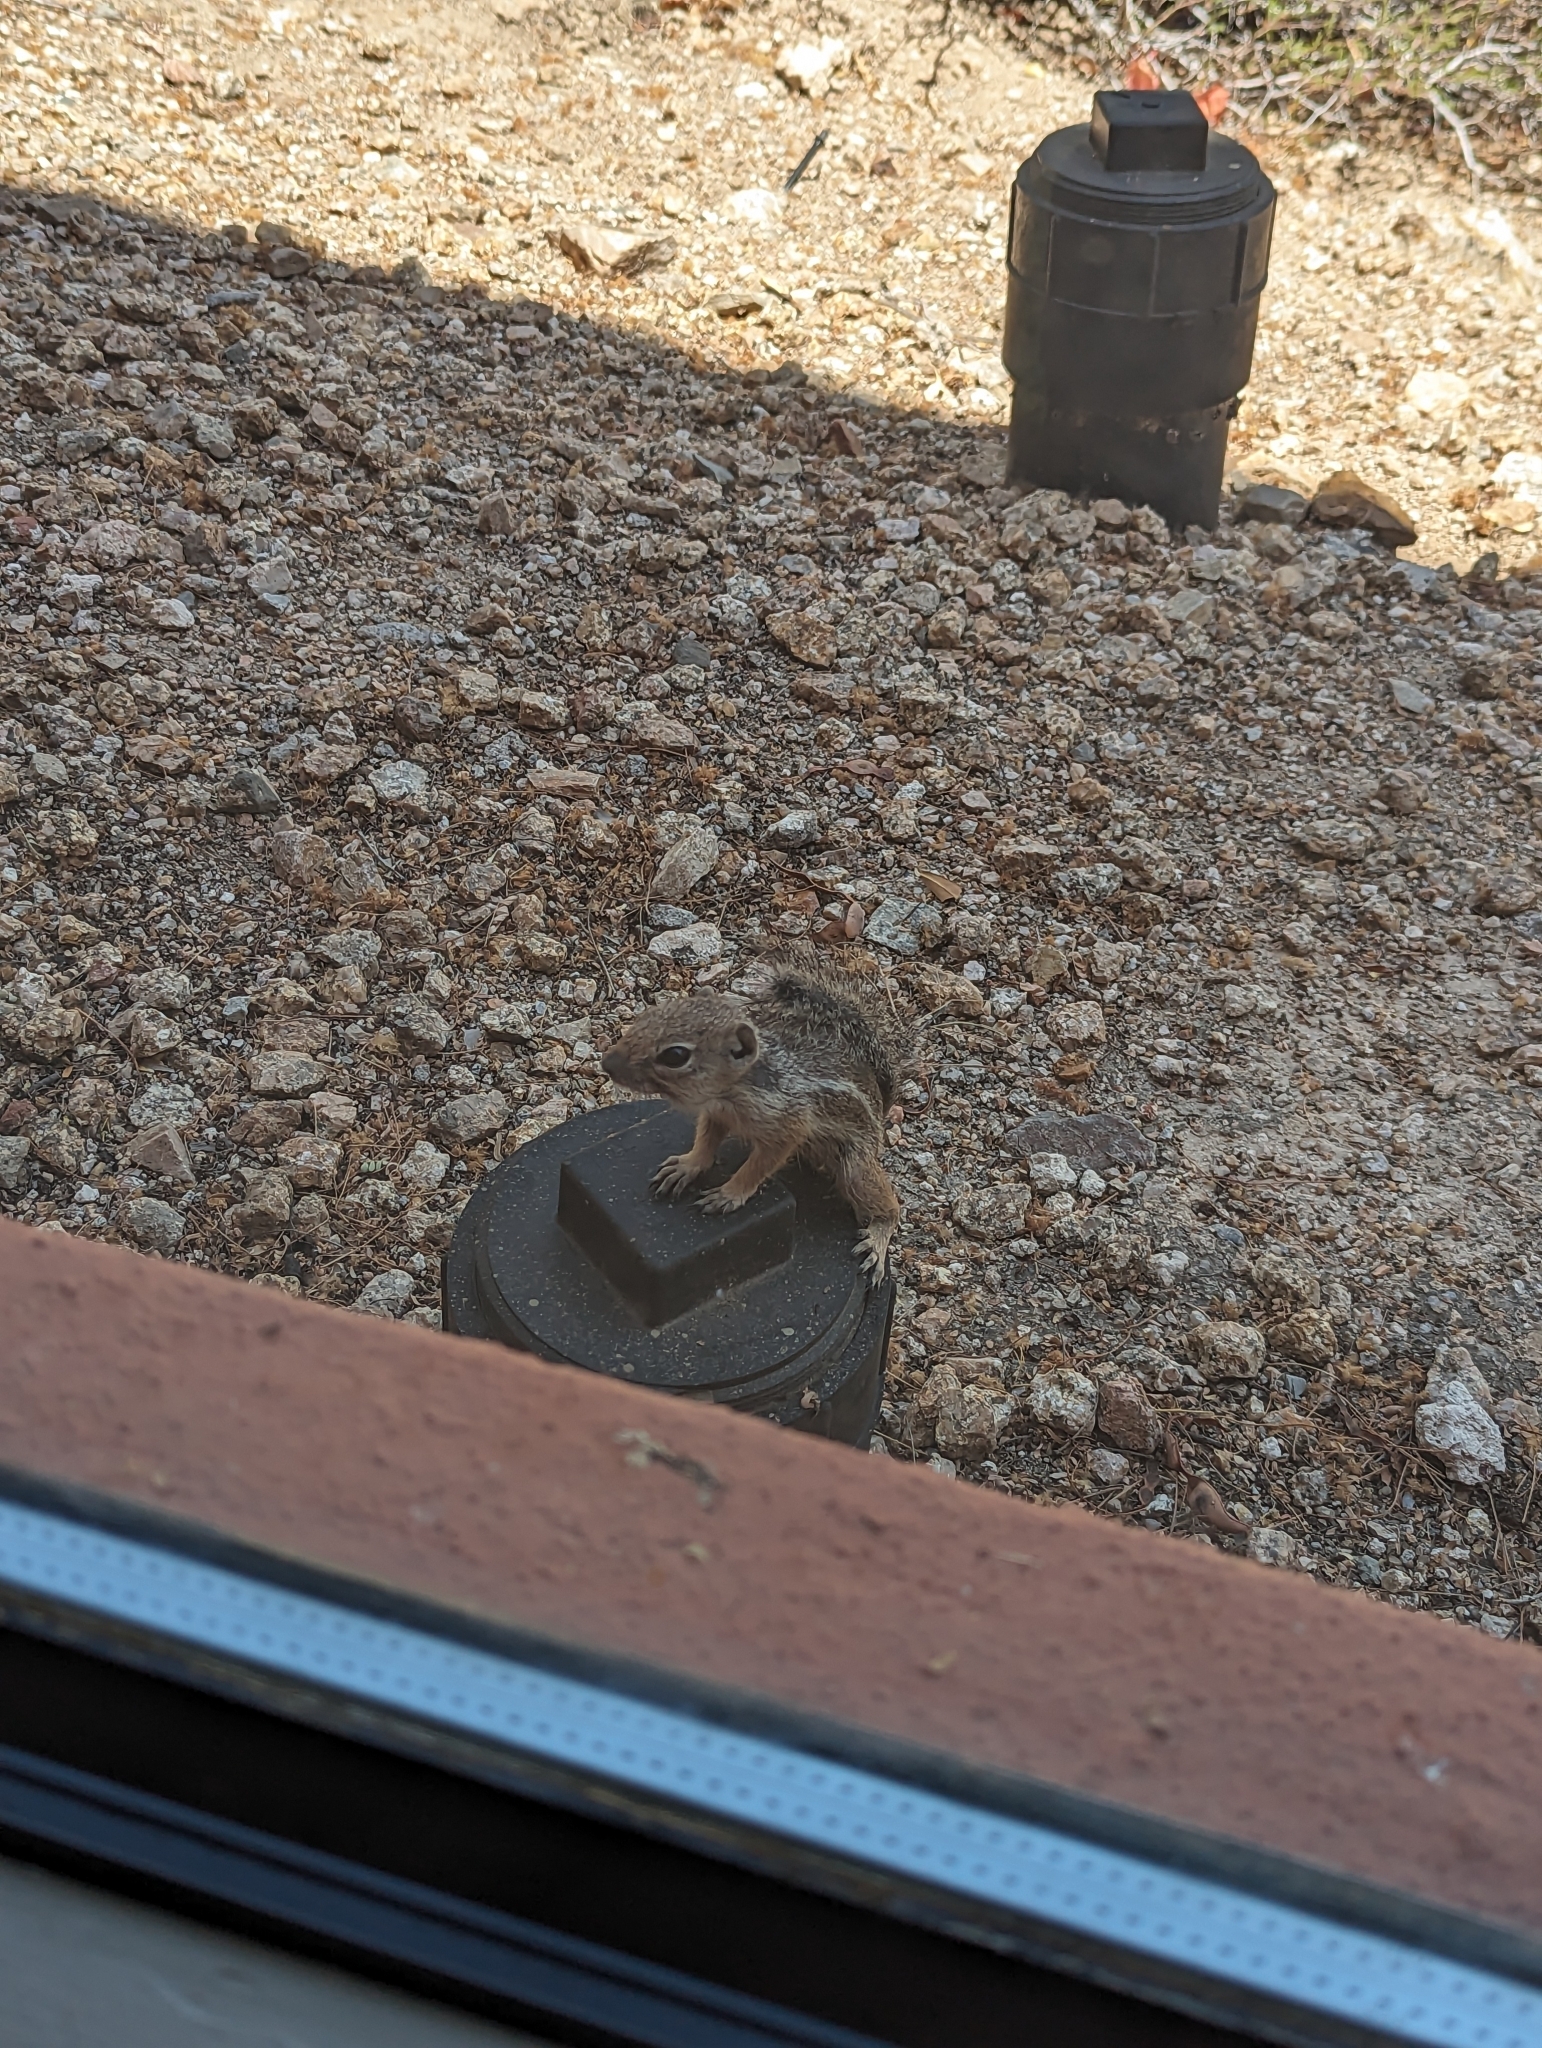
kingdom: Animalia
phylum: Chordata
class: Mammalia
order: Rodentia
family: Sciuridae
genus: Ammospermophilus
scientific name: Ammospermophilus harrisii
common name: Harris's antelope squirrel
